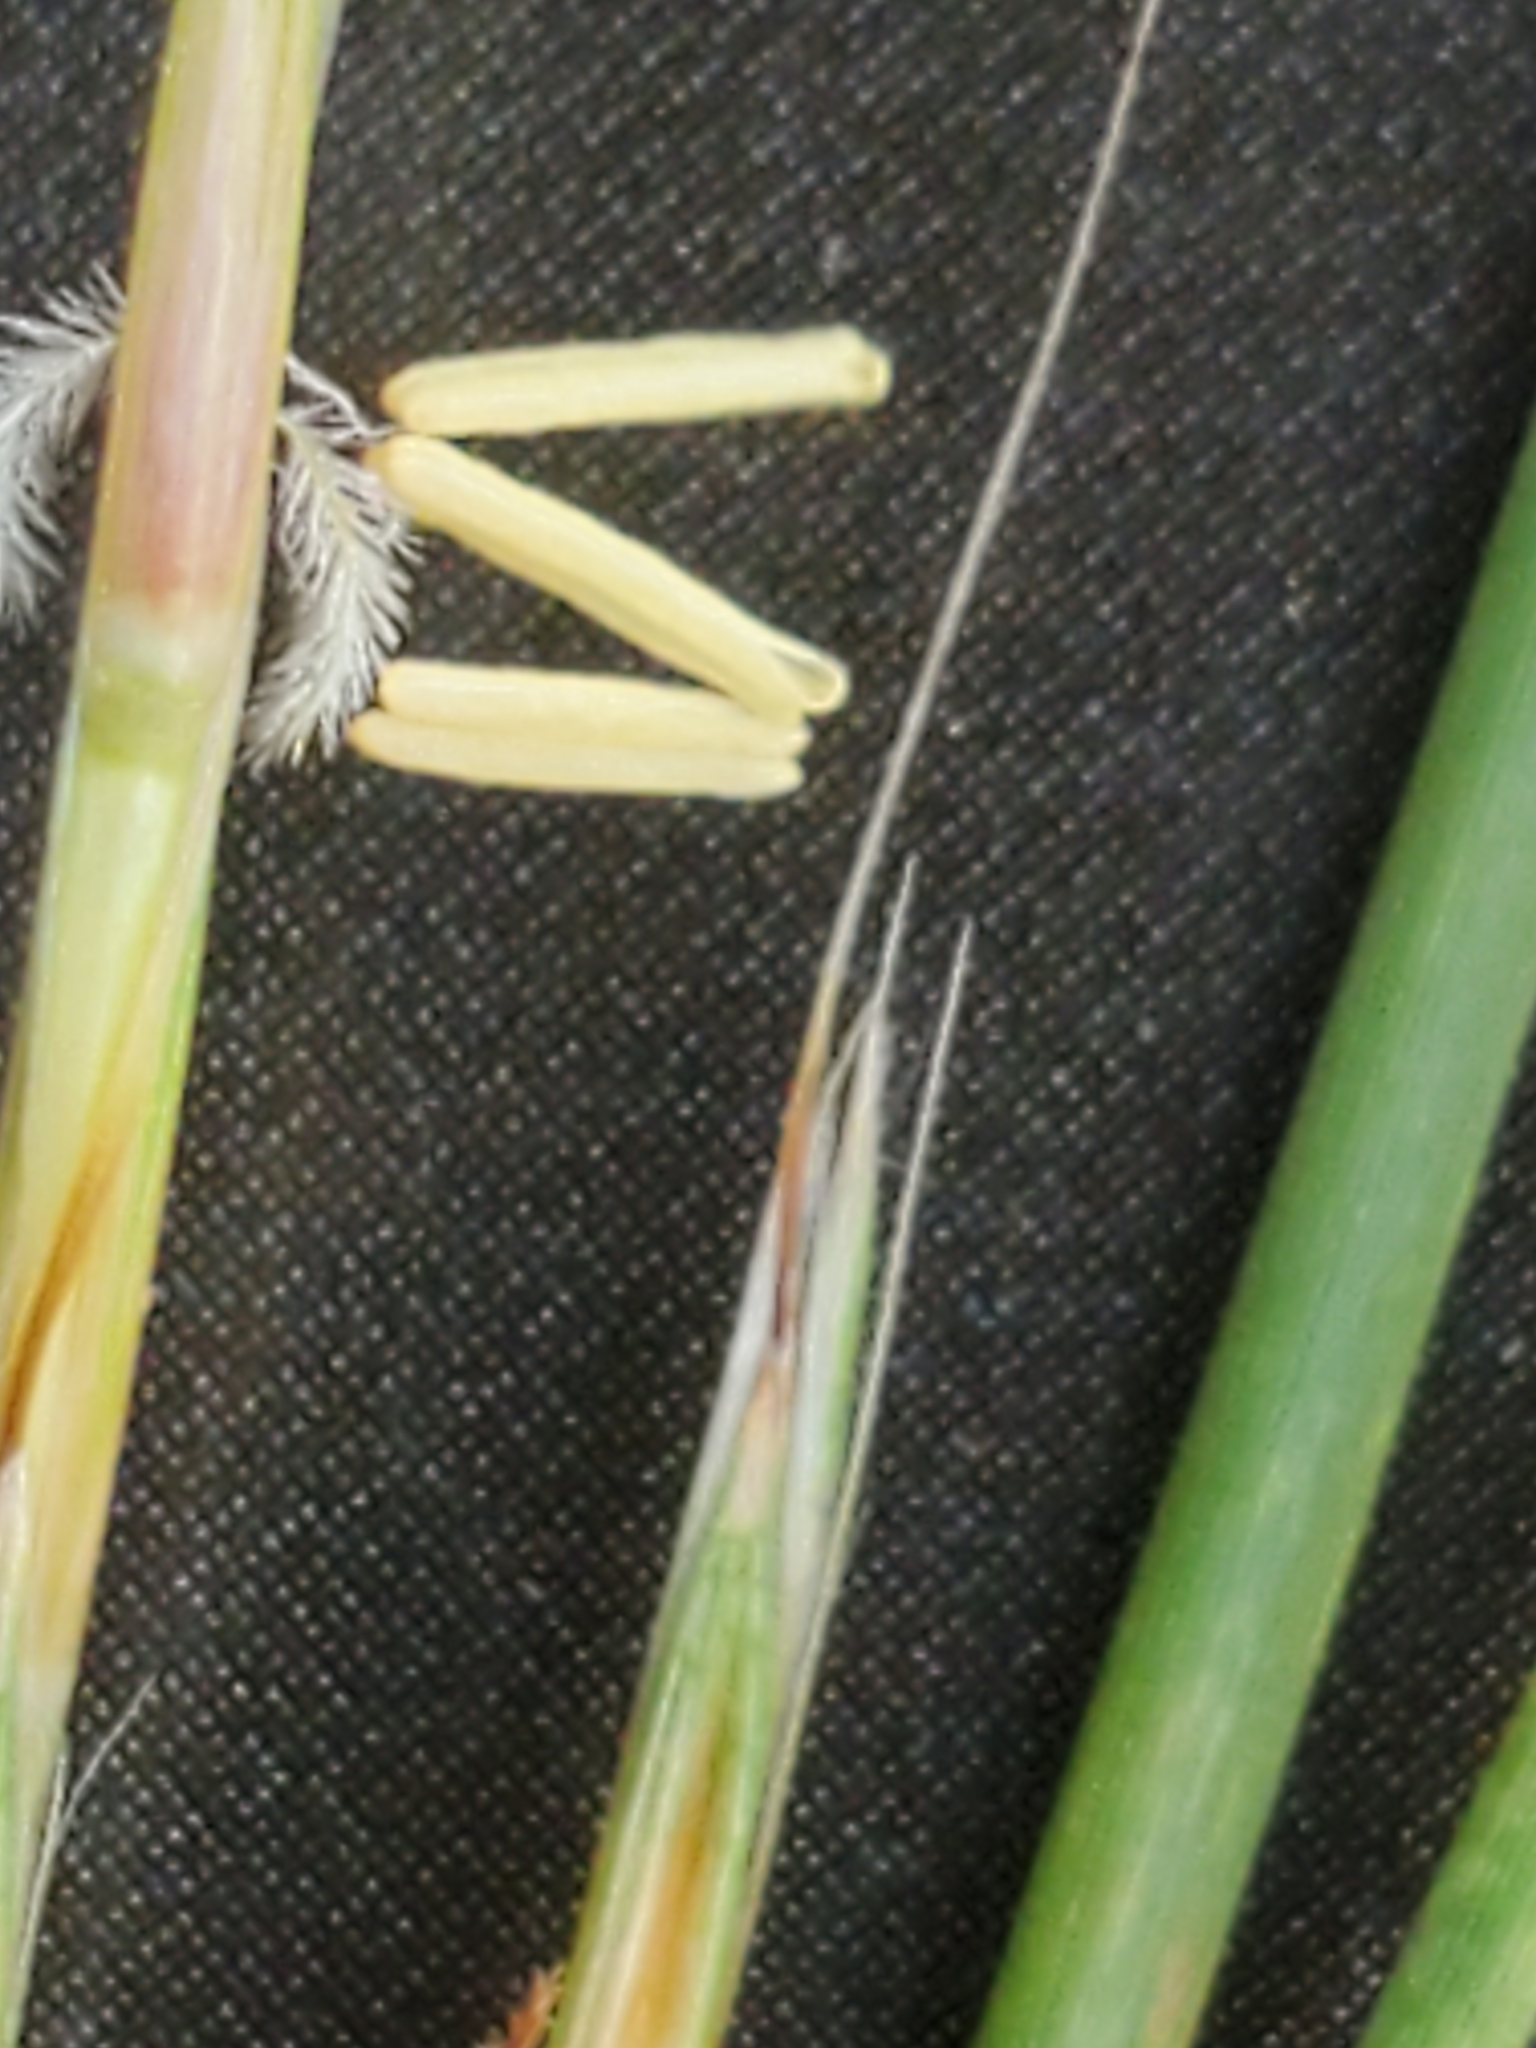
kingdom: Plantae
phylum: Tracheophyta
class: Liliopsida
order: Poales
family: Poaceae
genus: Schizachyrium
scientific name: Schizachyrium scoparium
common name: Little bluestem
